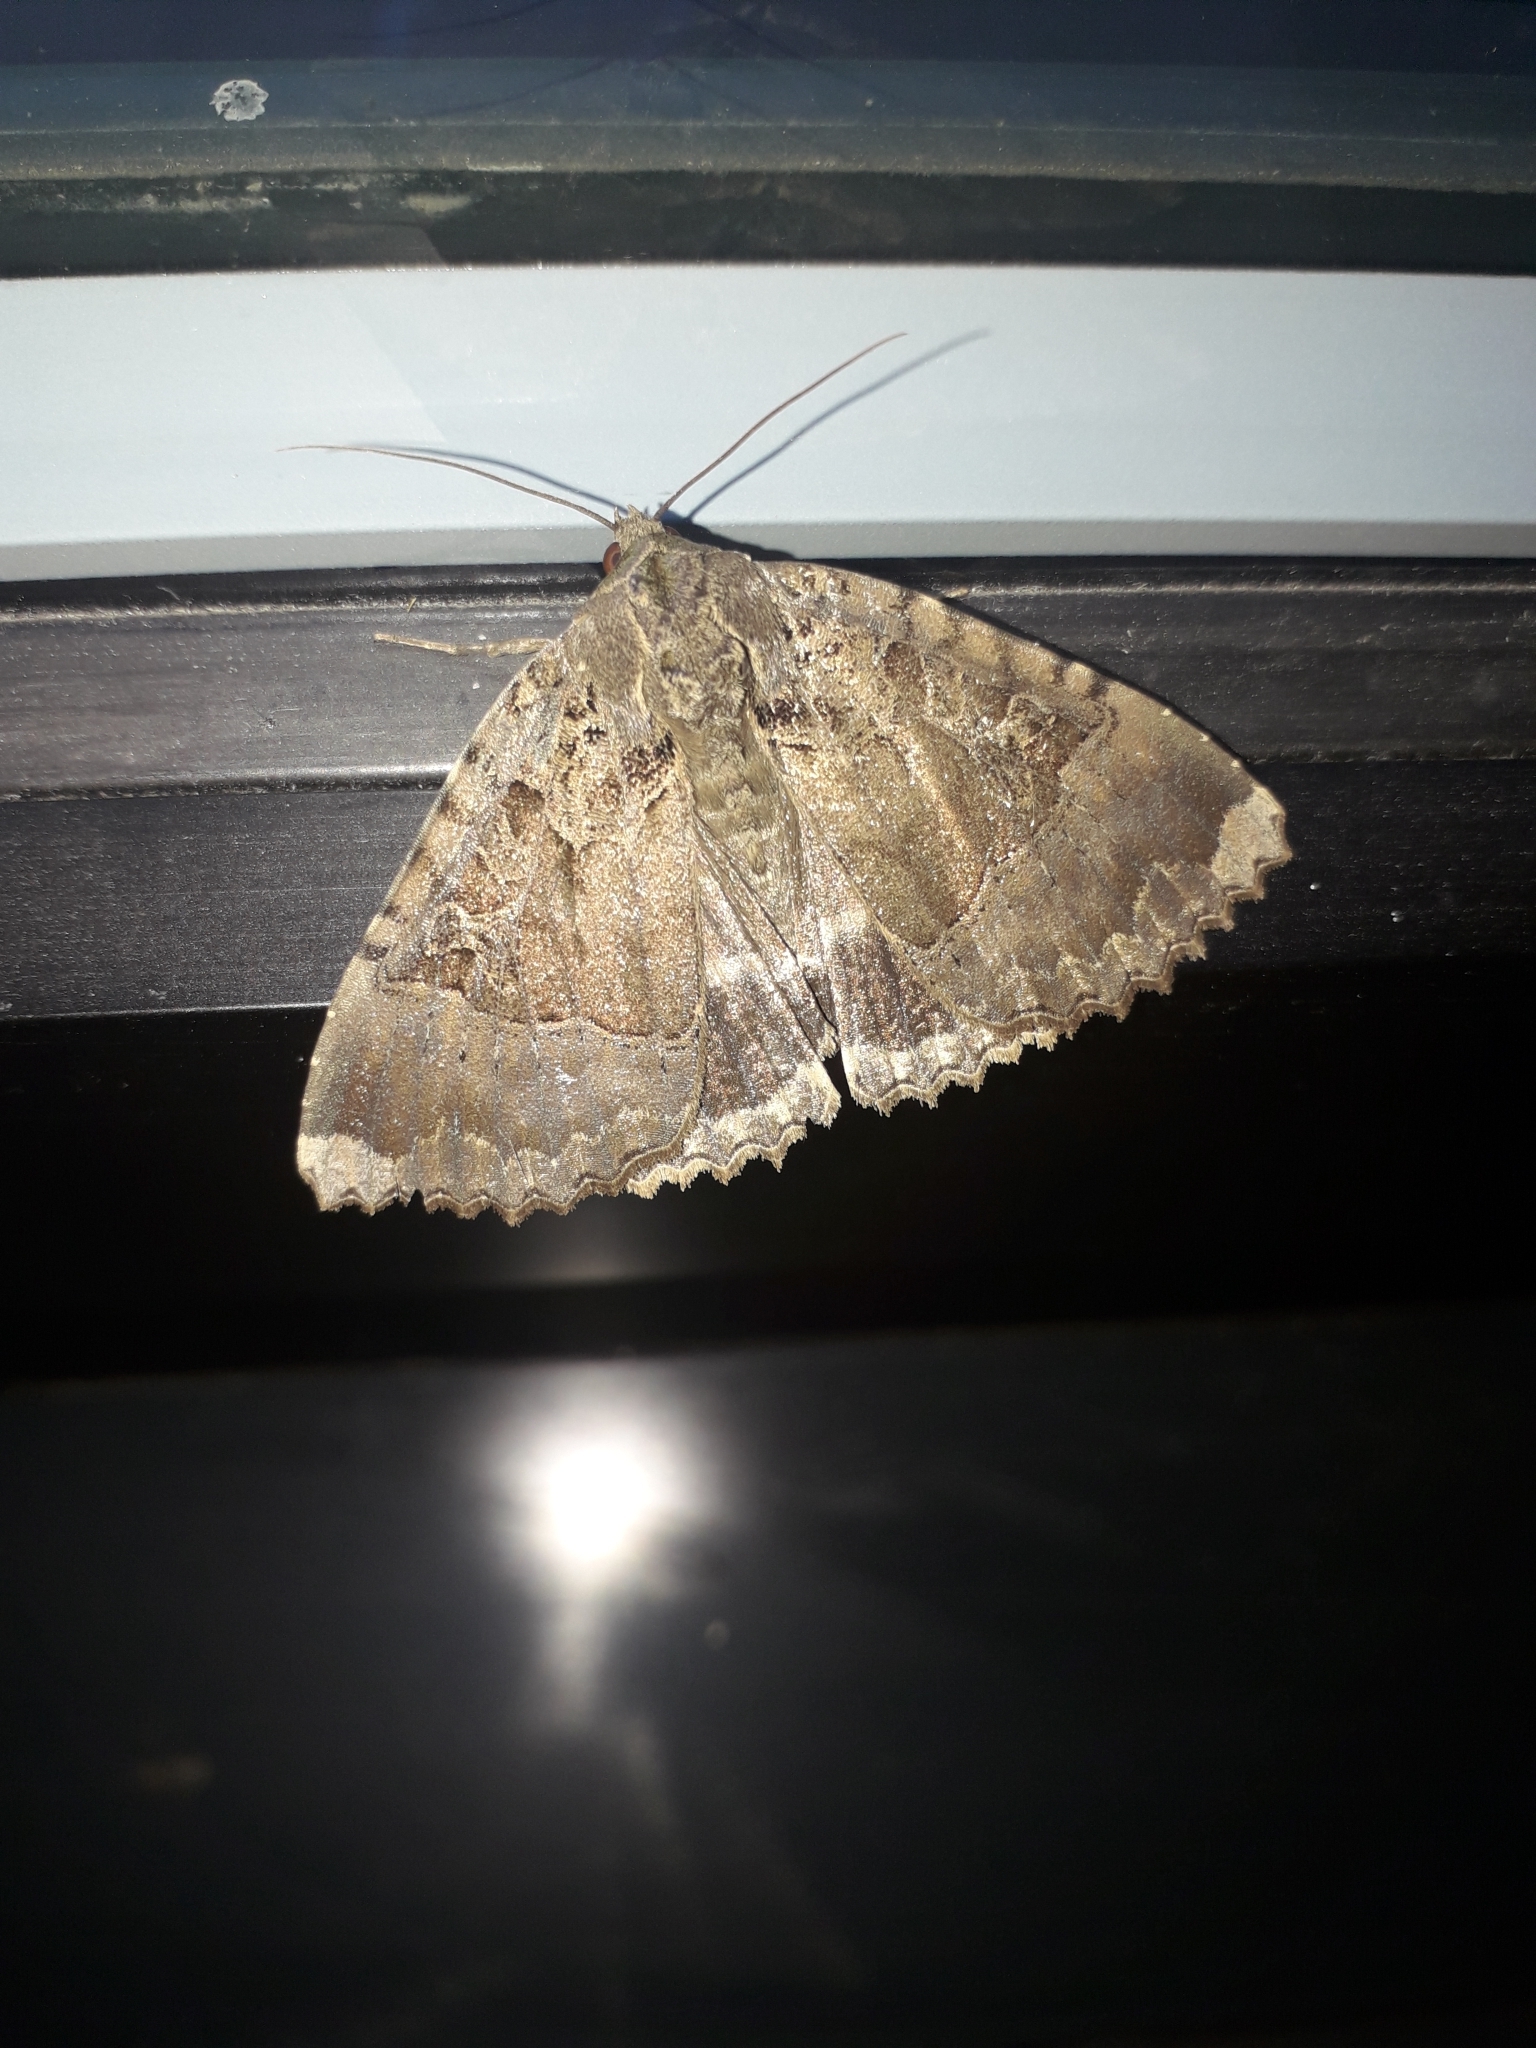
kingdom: Animalia
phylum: Arthropoda
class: Insecta
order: Lepidoptera
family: Noctuidae
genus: Mormo
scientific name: Mormo maura
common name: Old lady
